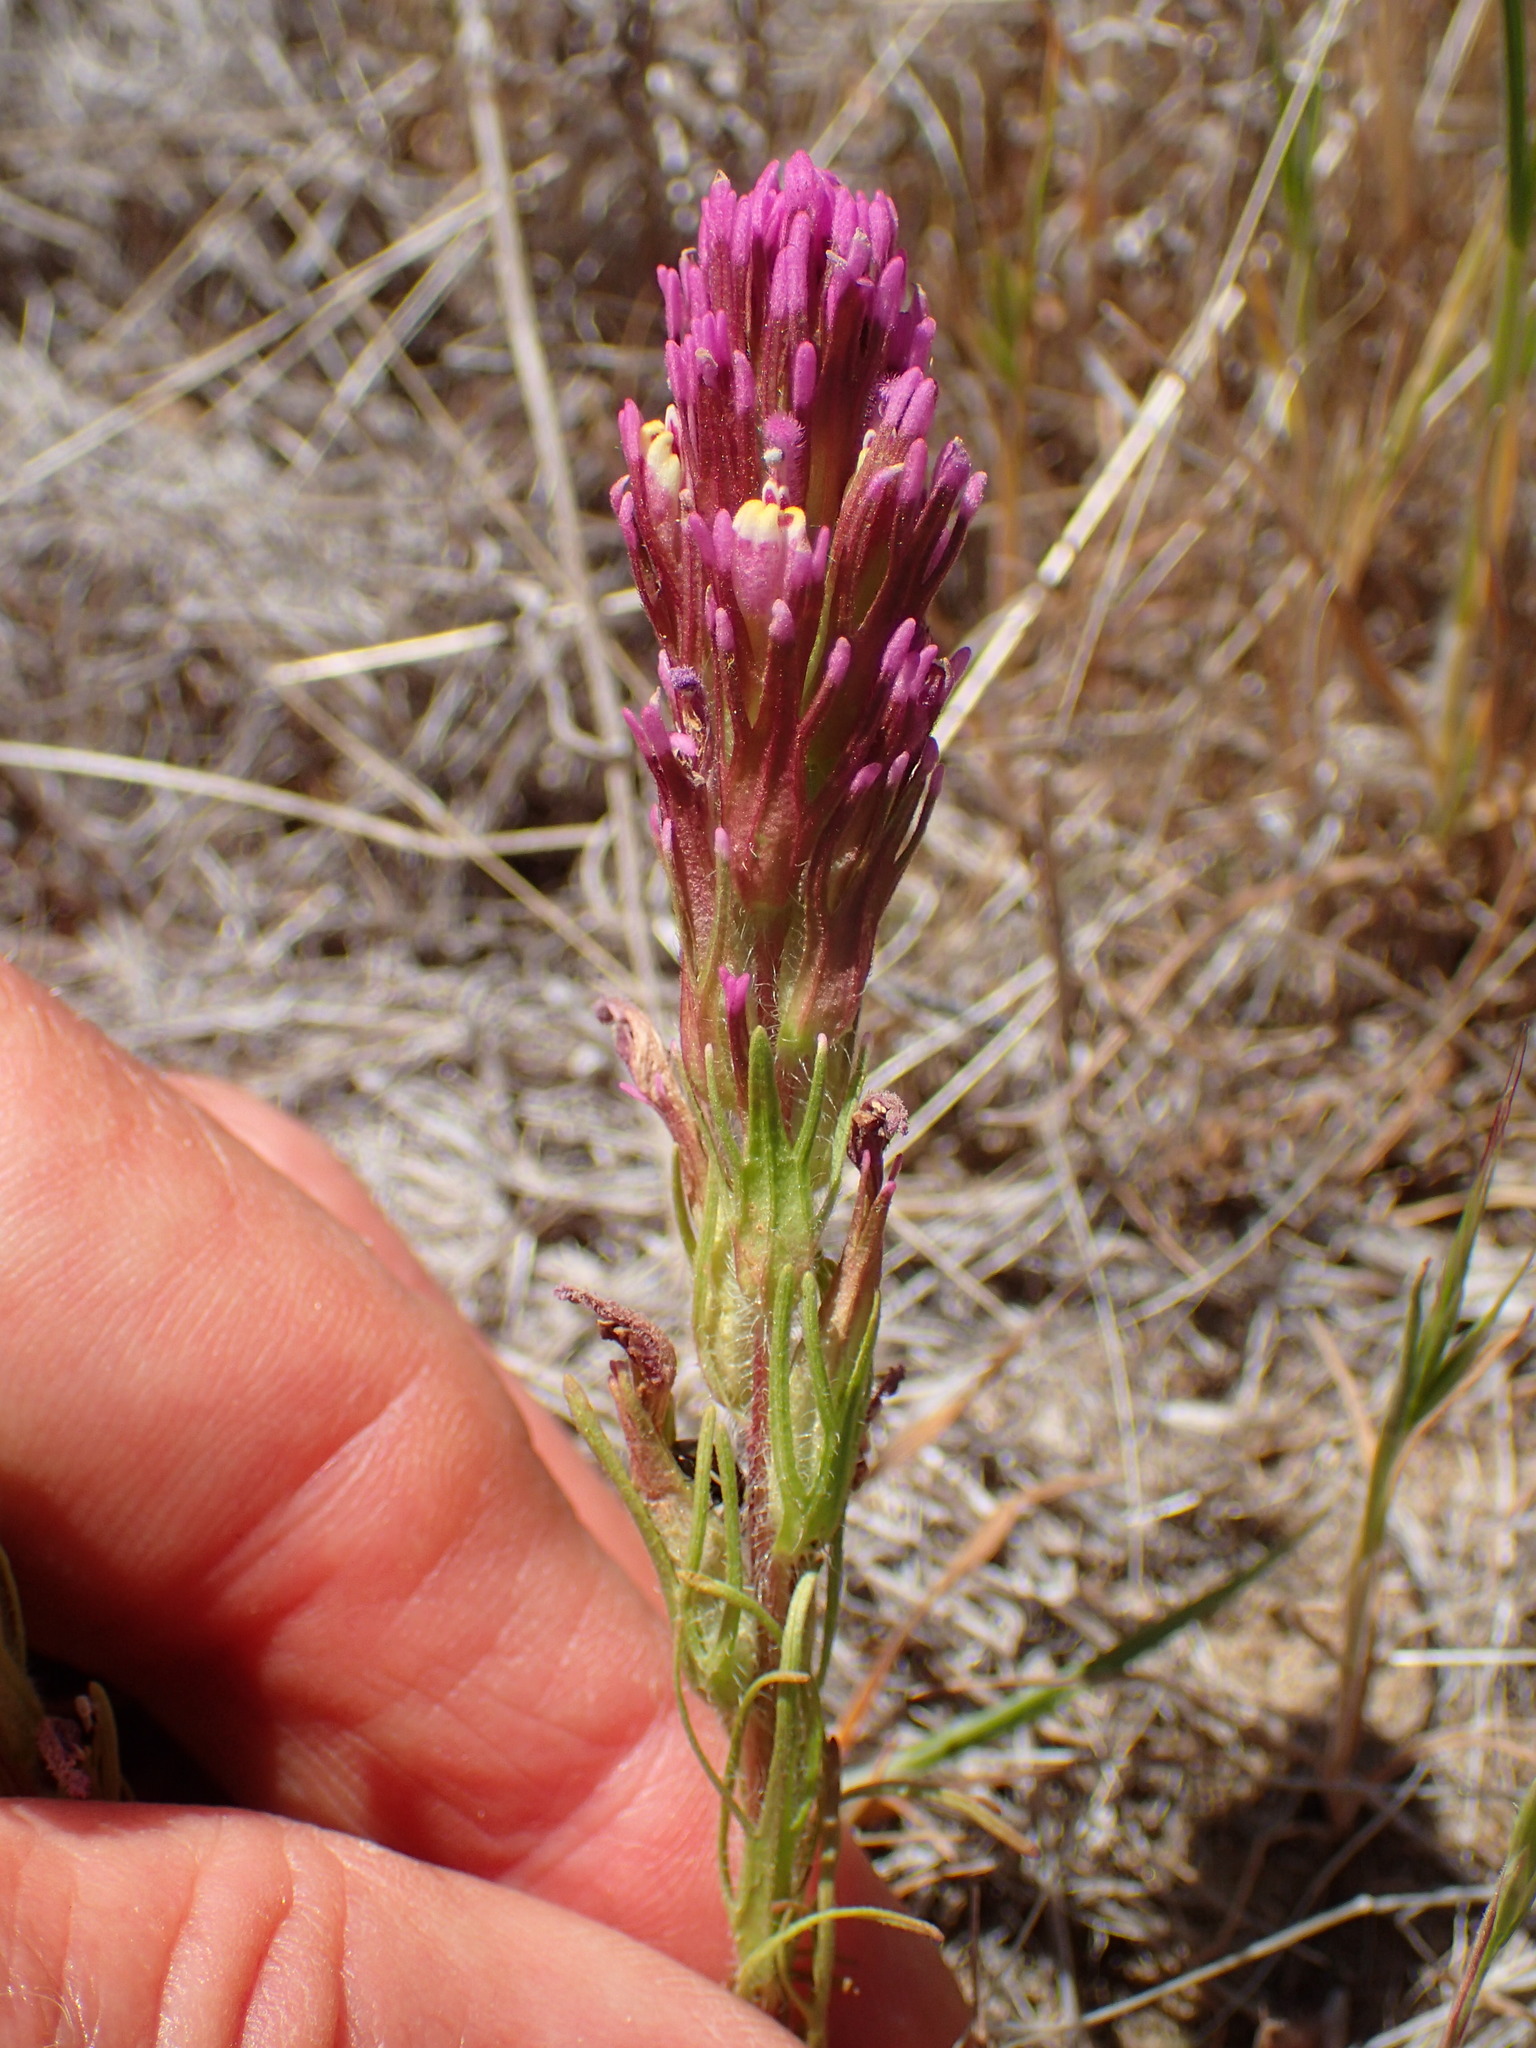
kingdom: Plantae
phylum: Tracheophyta
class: Magnoliopsida
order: Lamiales
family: Orobanchaceae
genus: Castilleja
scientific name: Castilleja exserta
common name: Purple owl-clover
